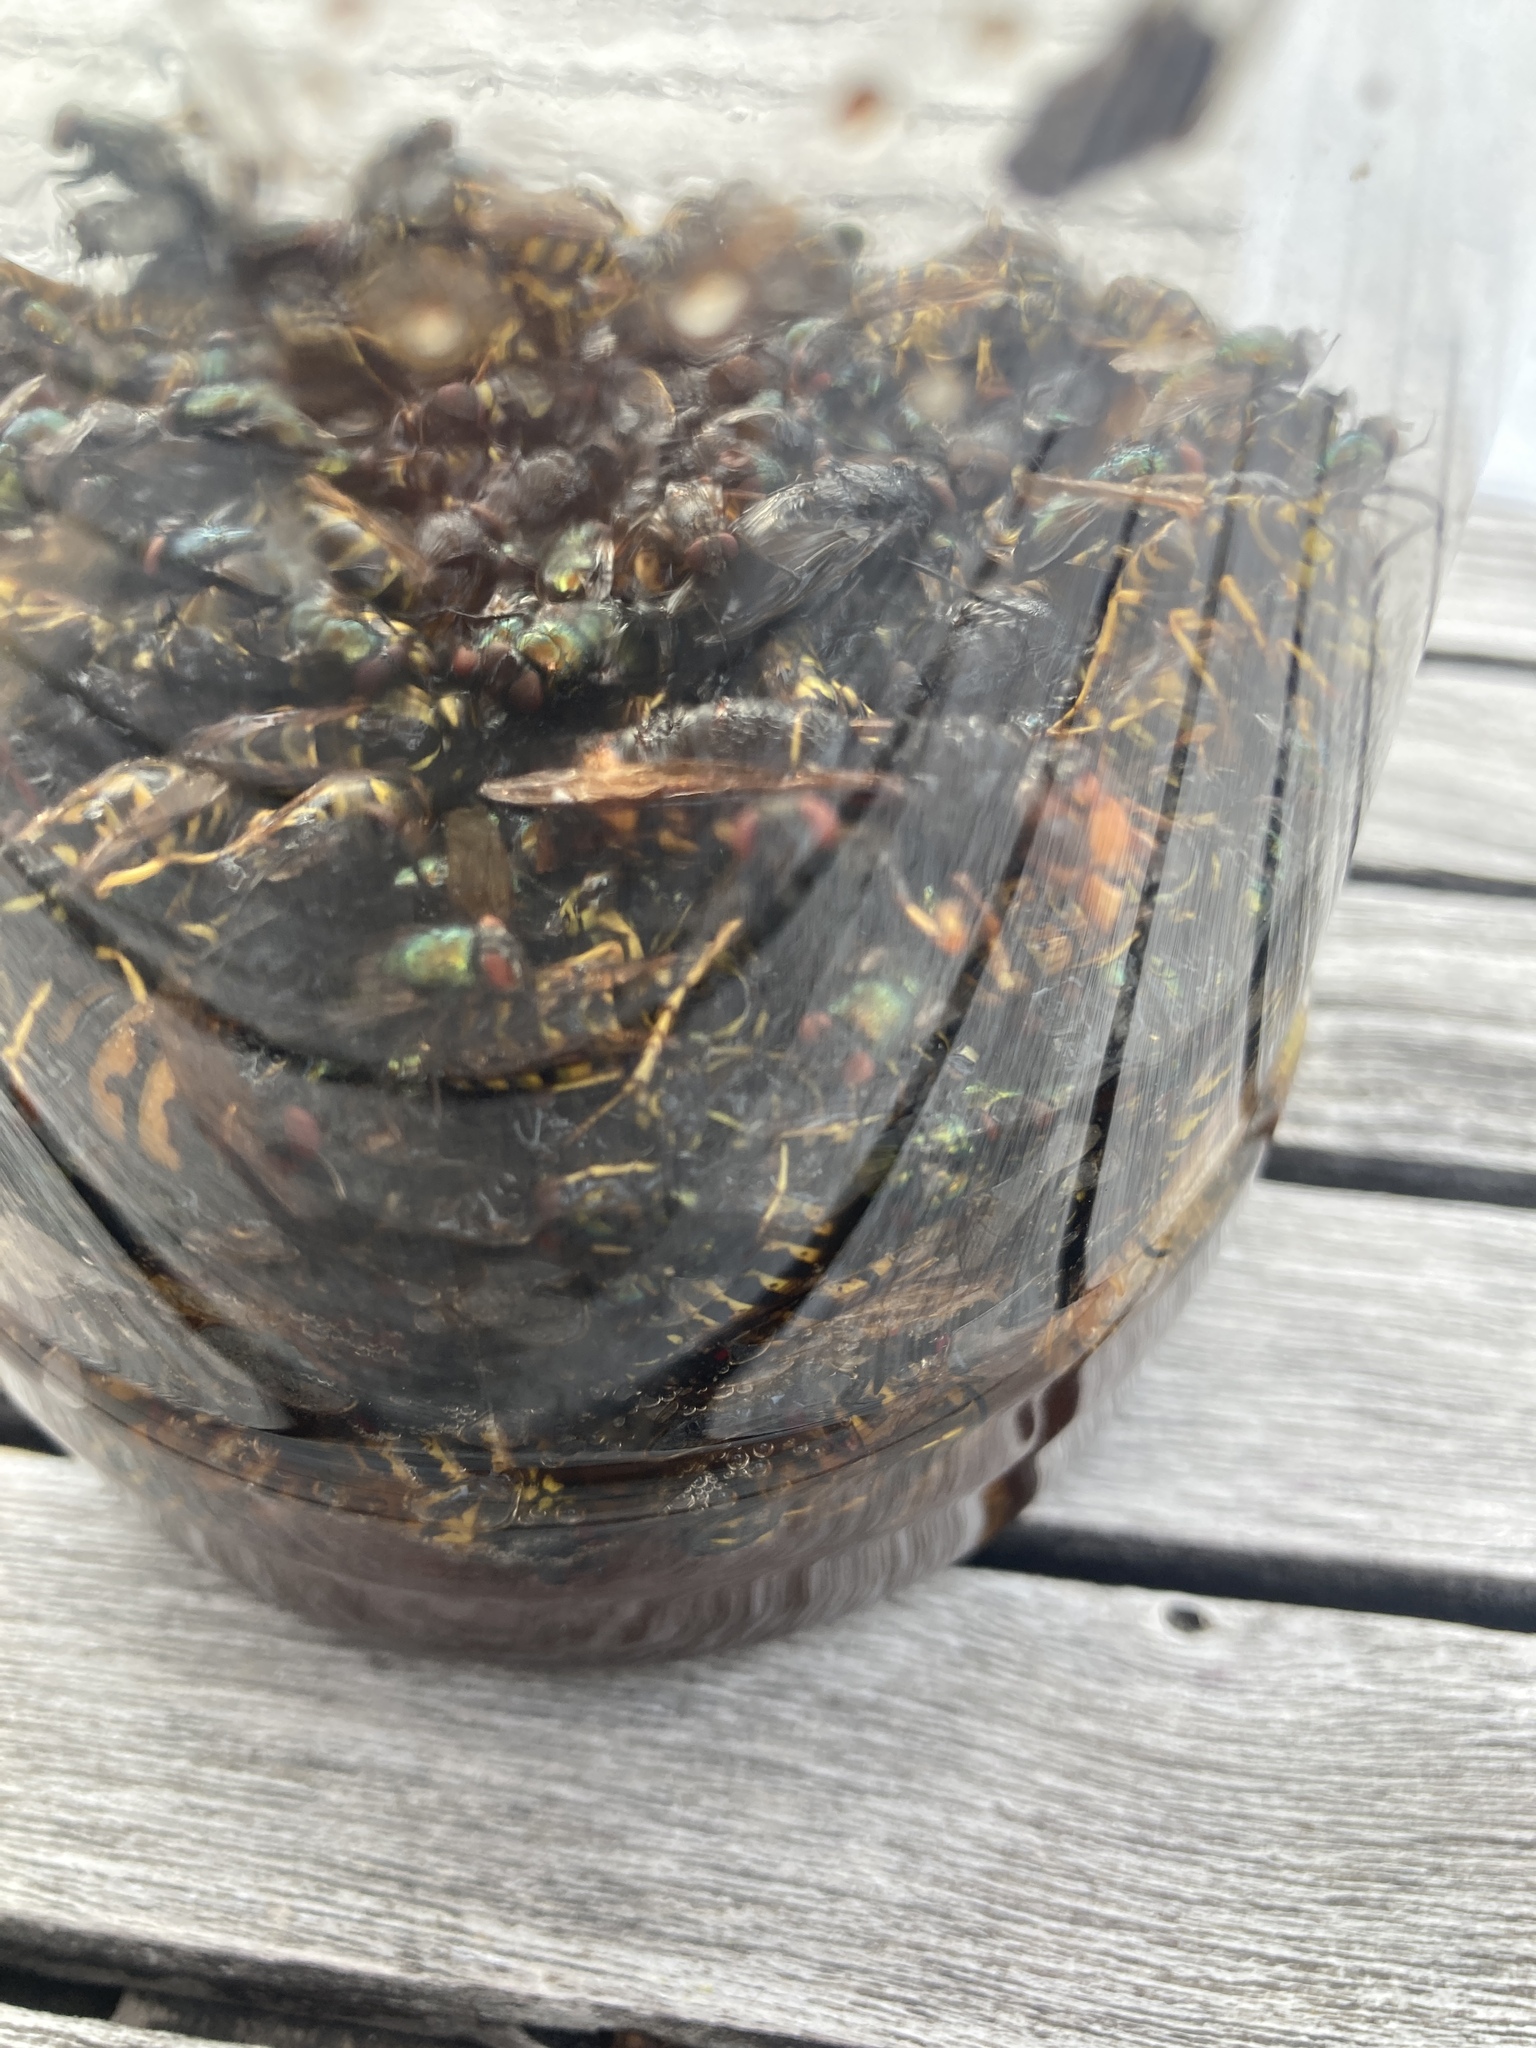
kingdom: Animalia
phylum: Arthropoda
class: Insecta
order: Hymenoptera
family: Vespidae
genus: Vespa
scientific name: Vespa velutina
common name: Asian hornet
